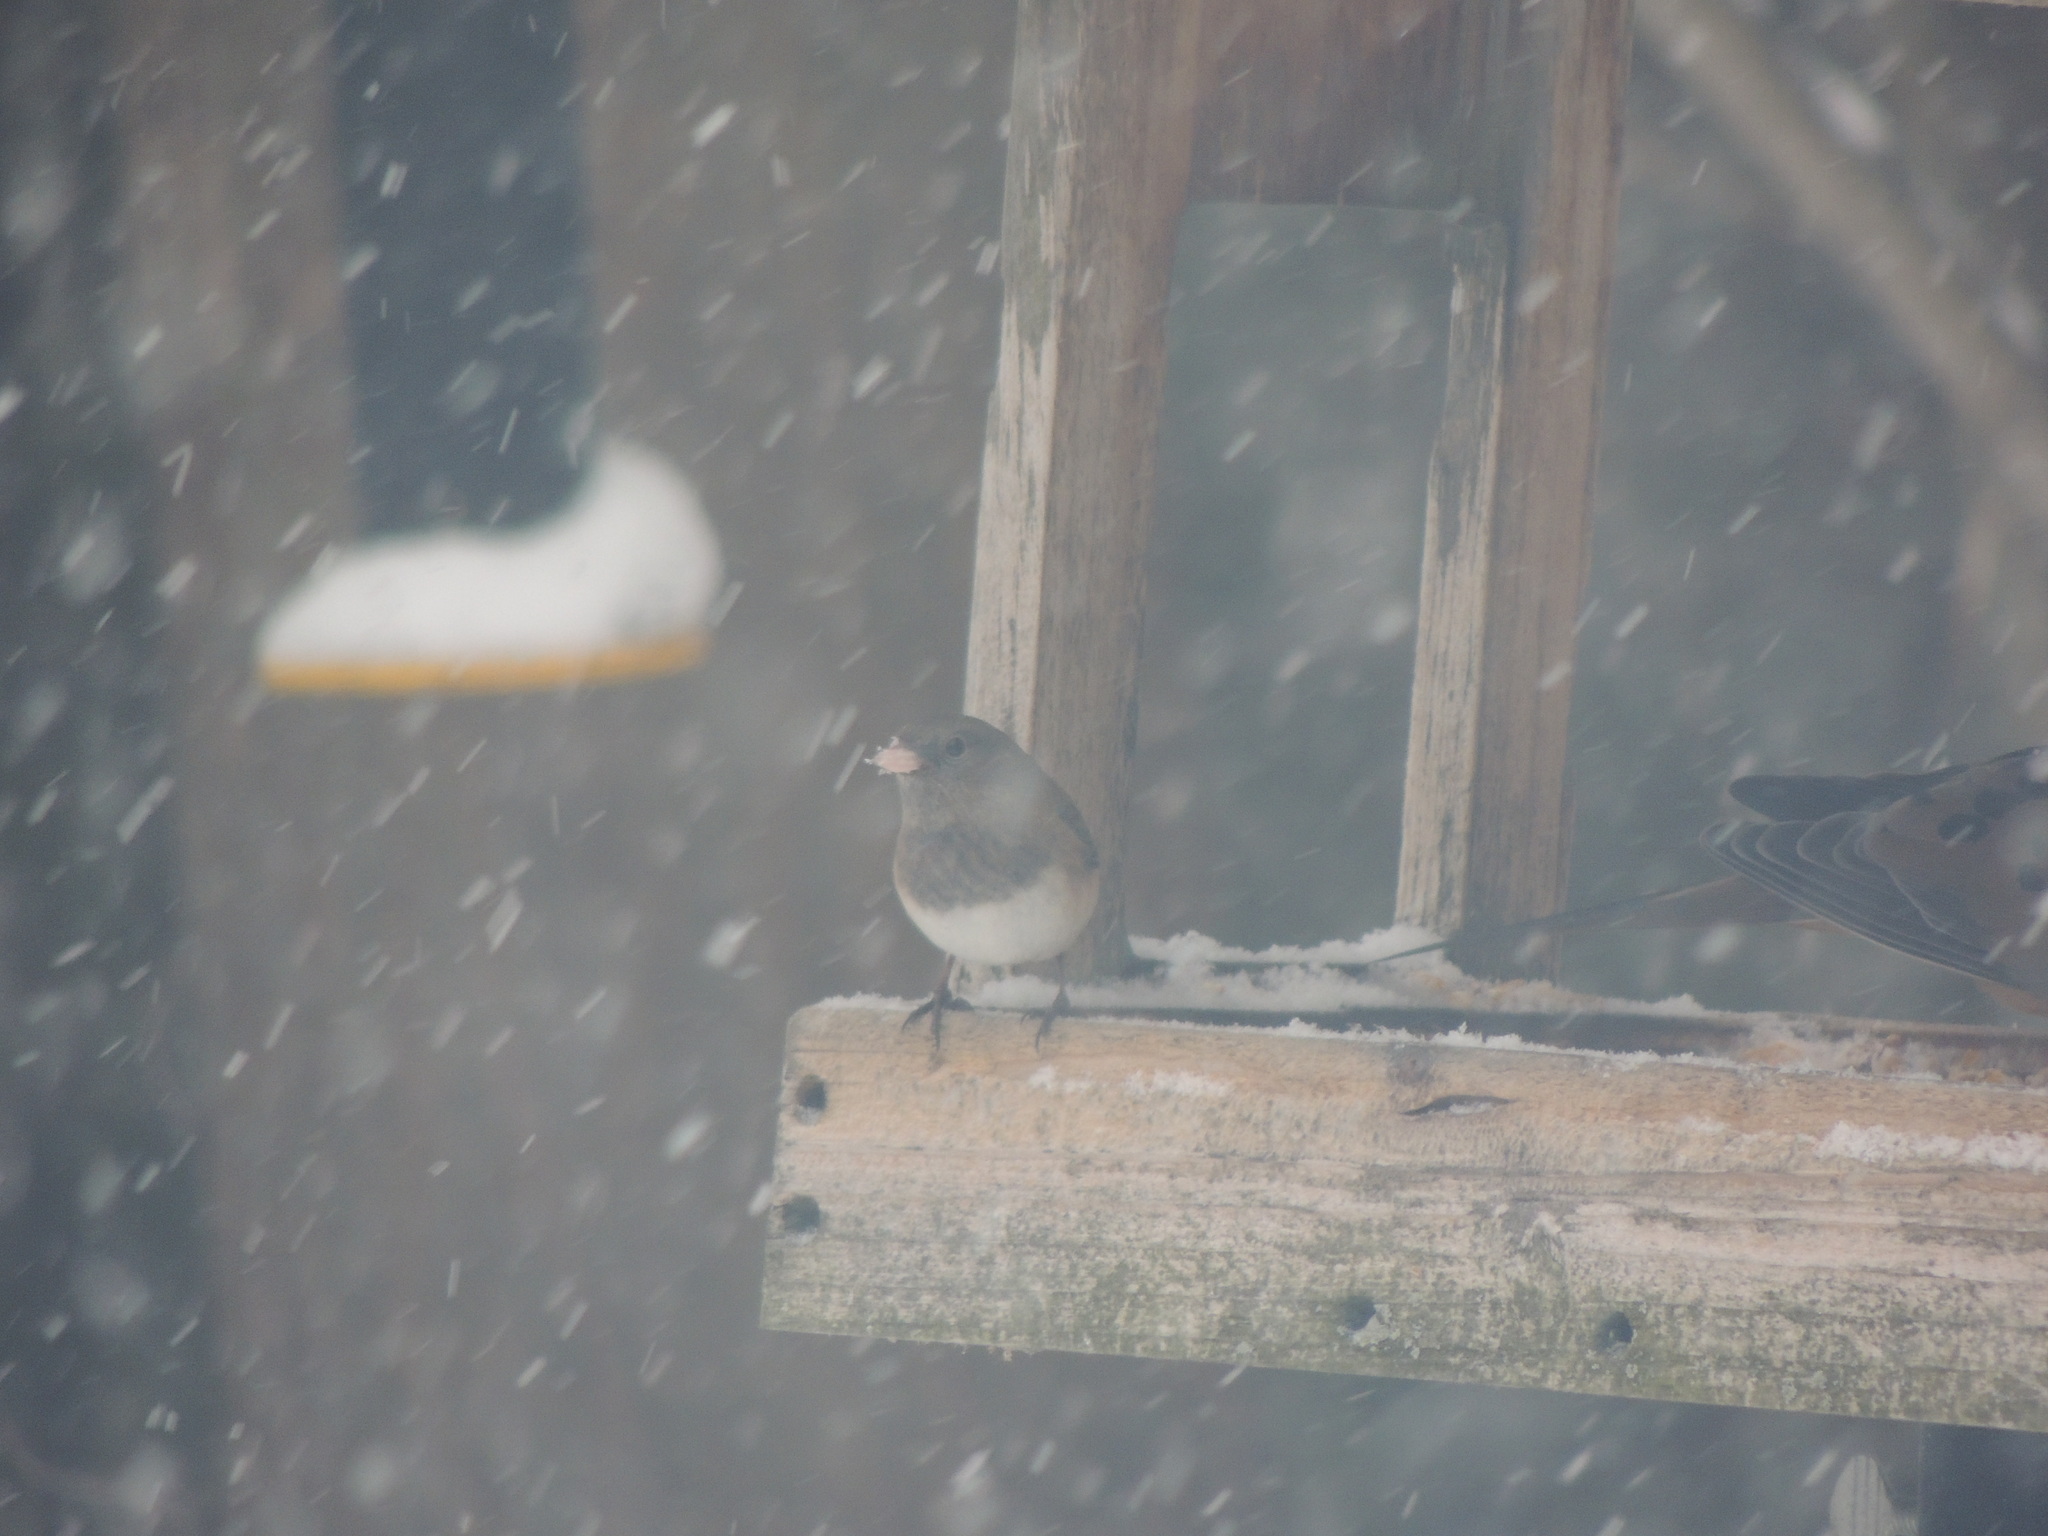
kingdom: Animalia
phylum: Chordata
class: Aves
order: Passeriformes
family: Passerellidae
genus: Junco
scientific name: Junco hyemalis
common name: Dark-eyed junco
